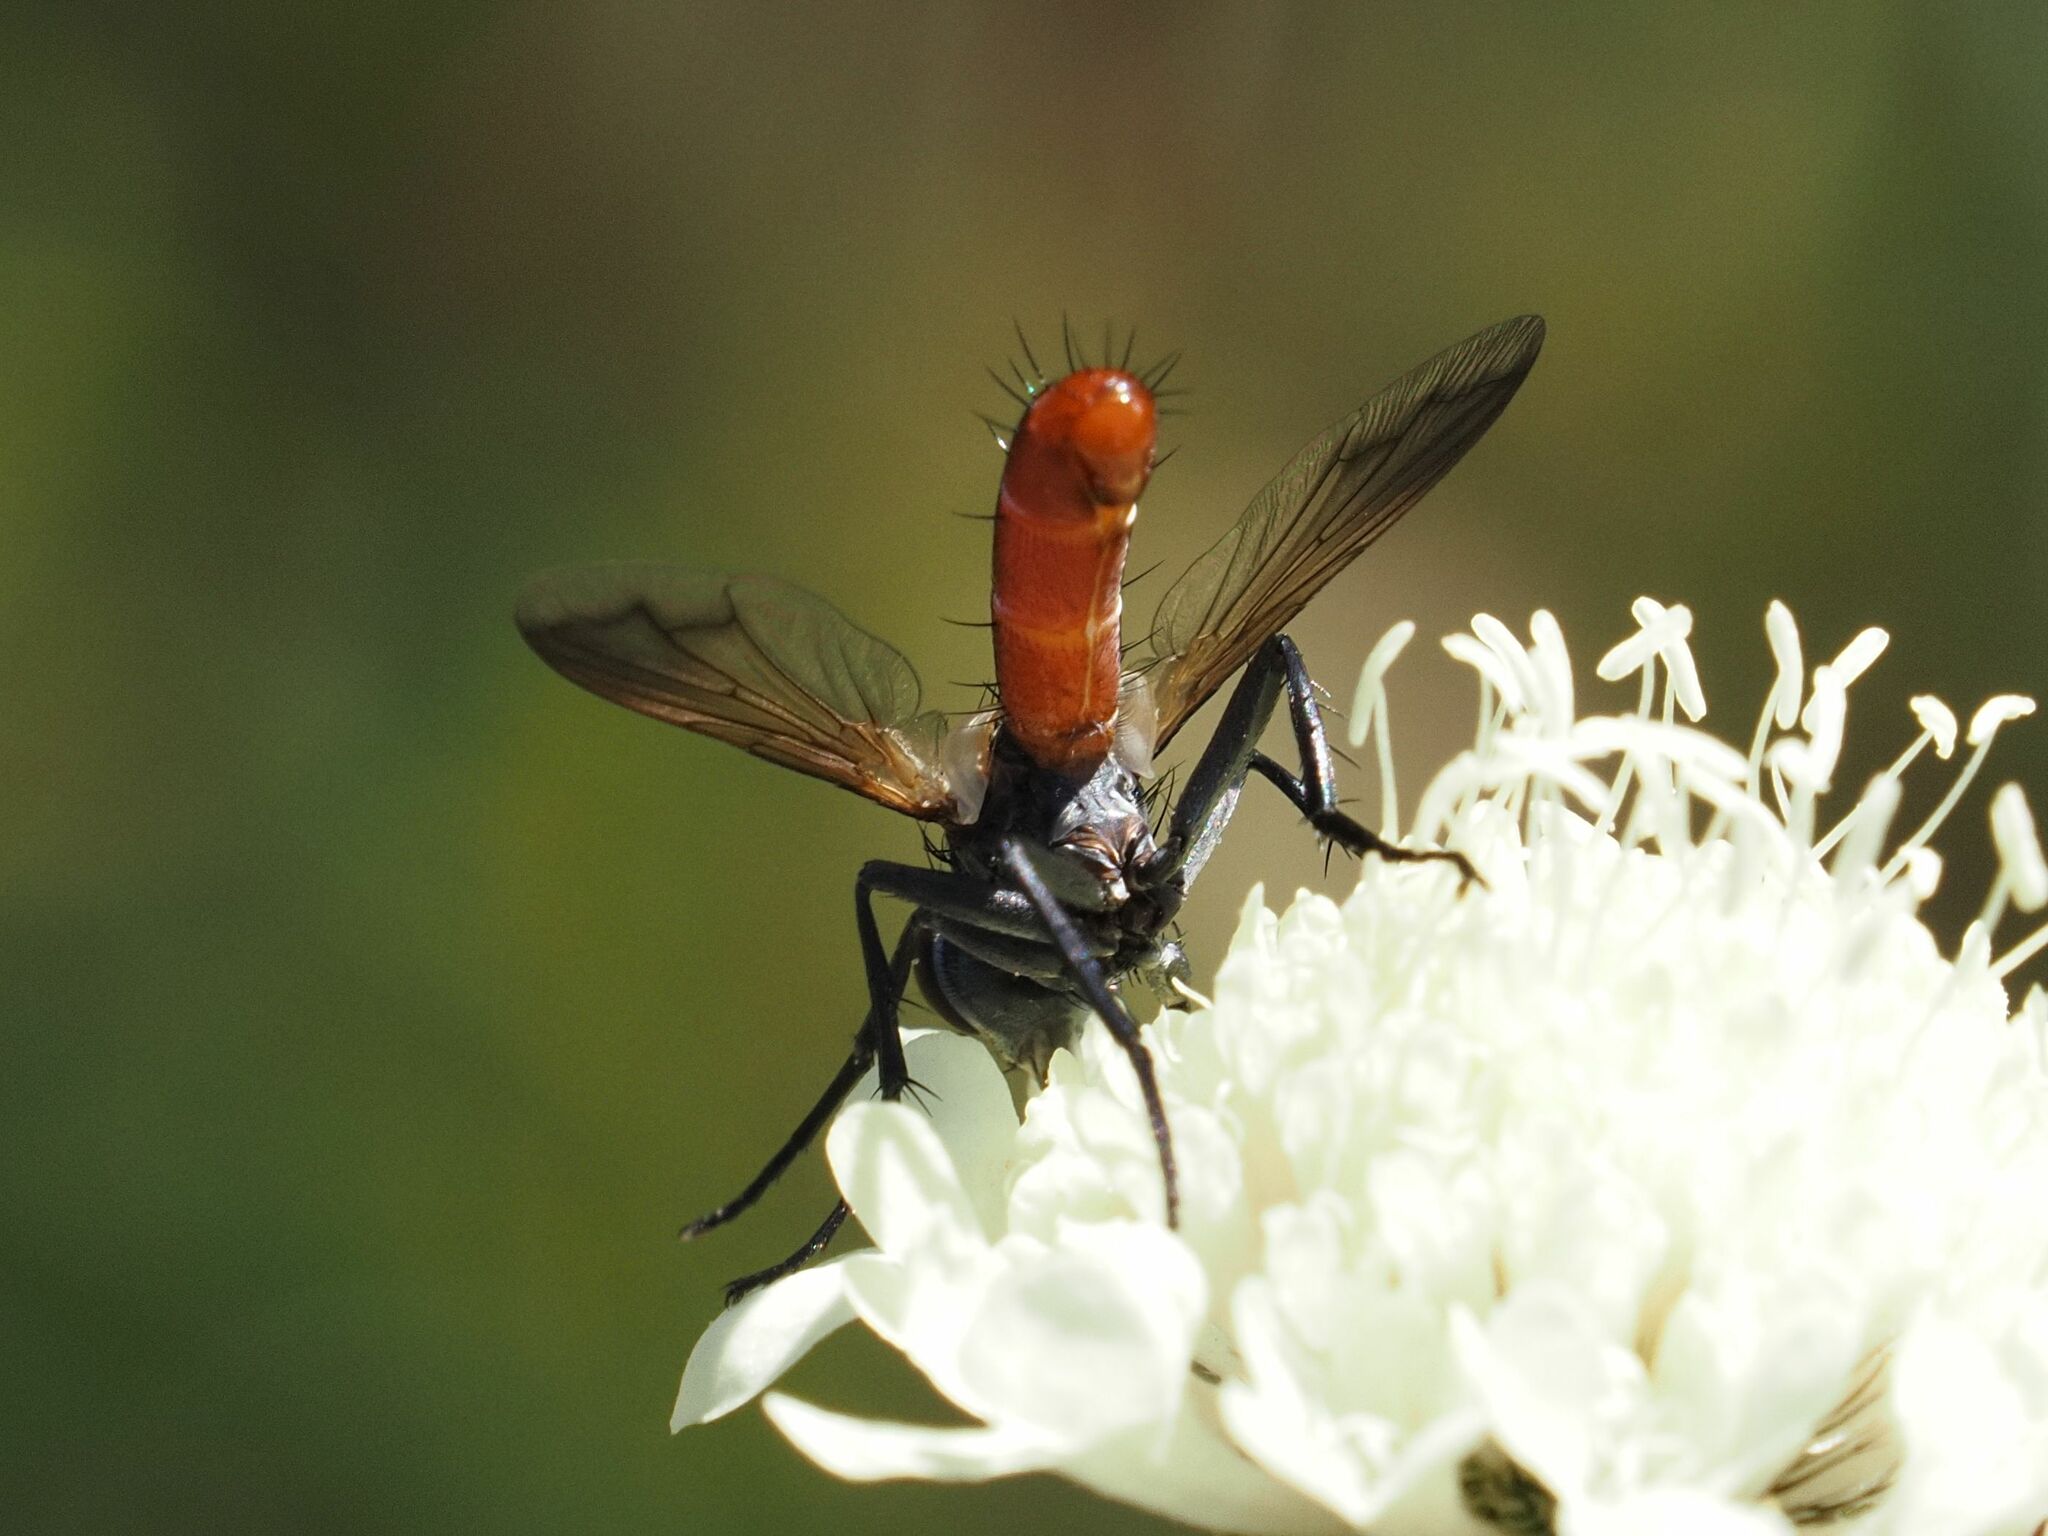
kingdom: Animalia
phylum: Arthropoda
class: Insecta
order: Diptera
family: Tachinidae
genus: Cylindromyia
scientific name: Cylindromyia bicolor
